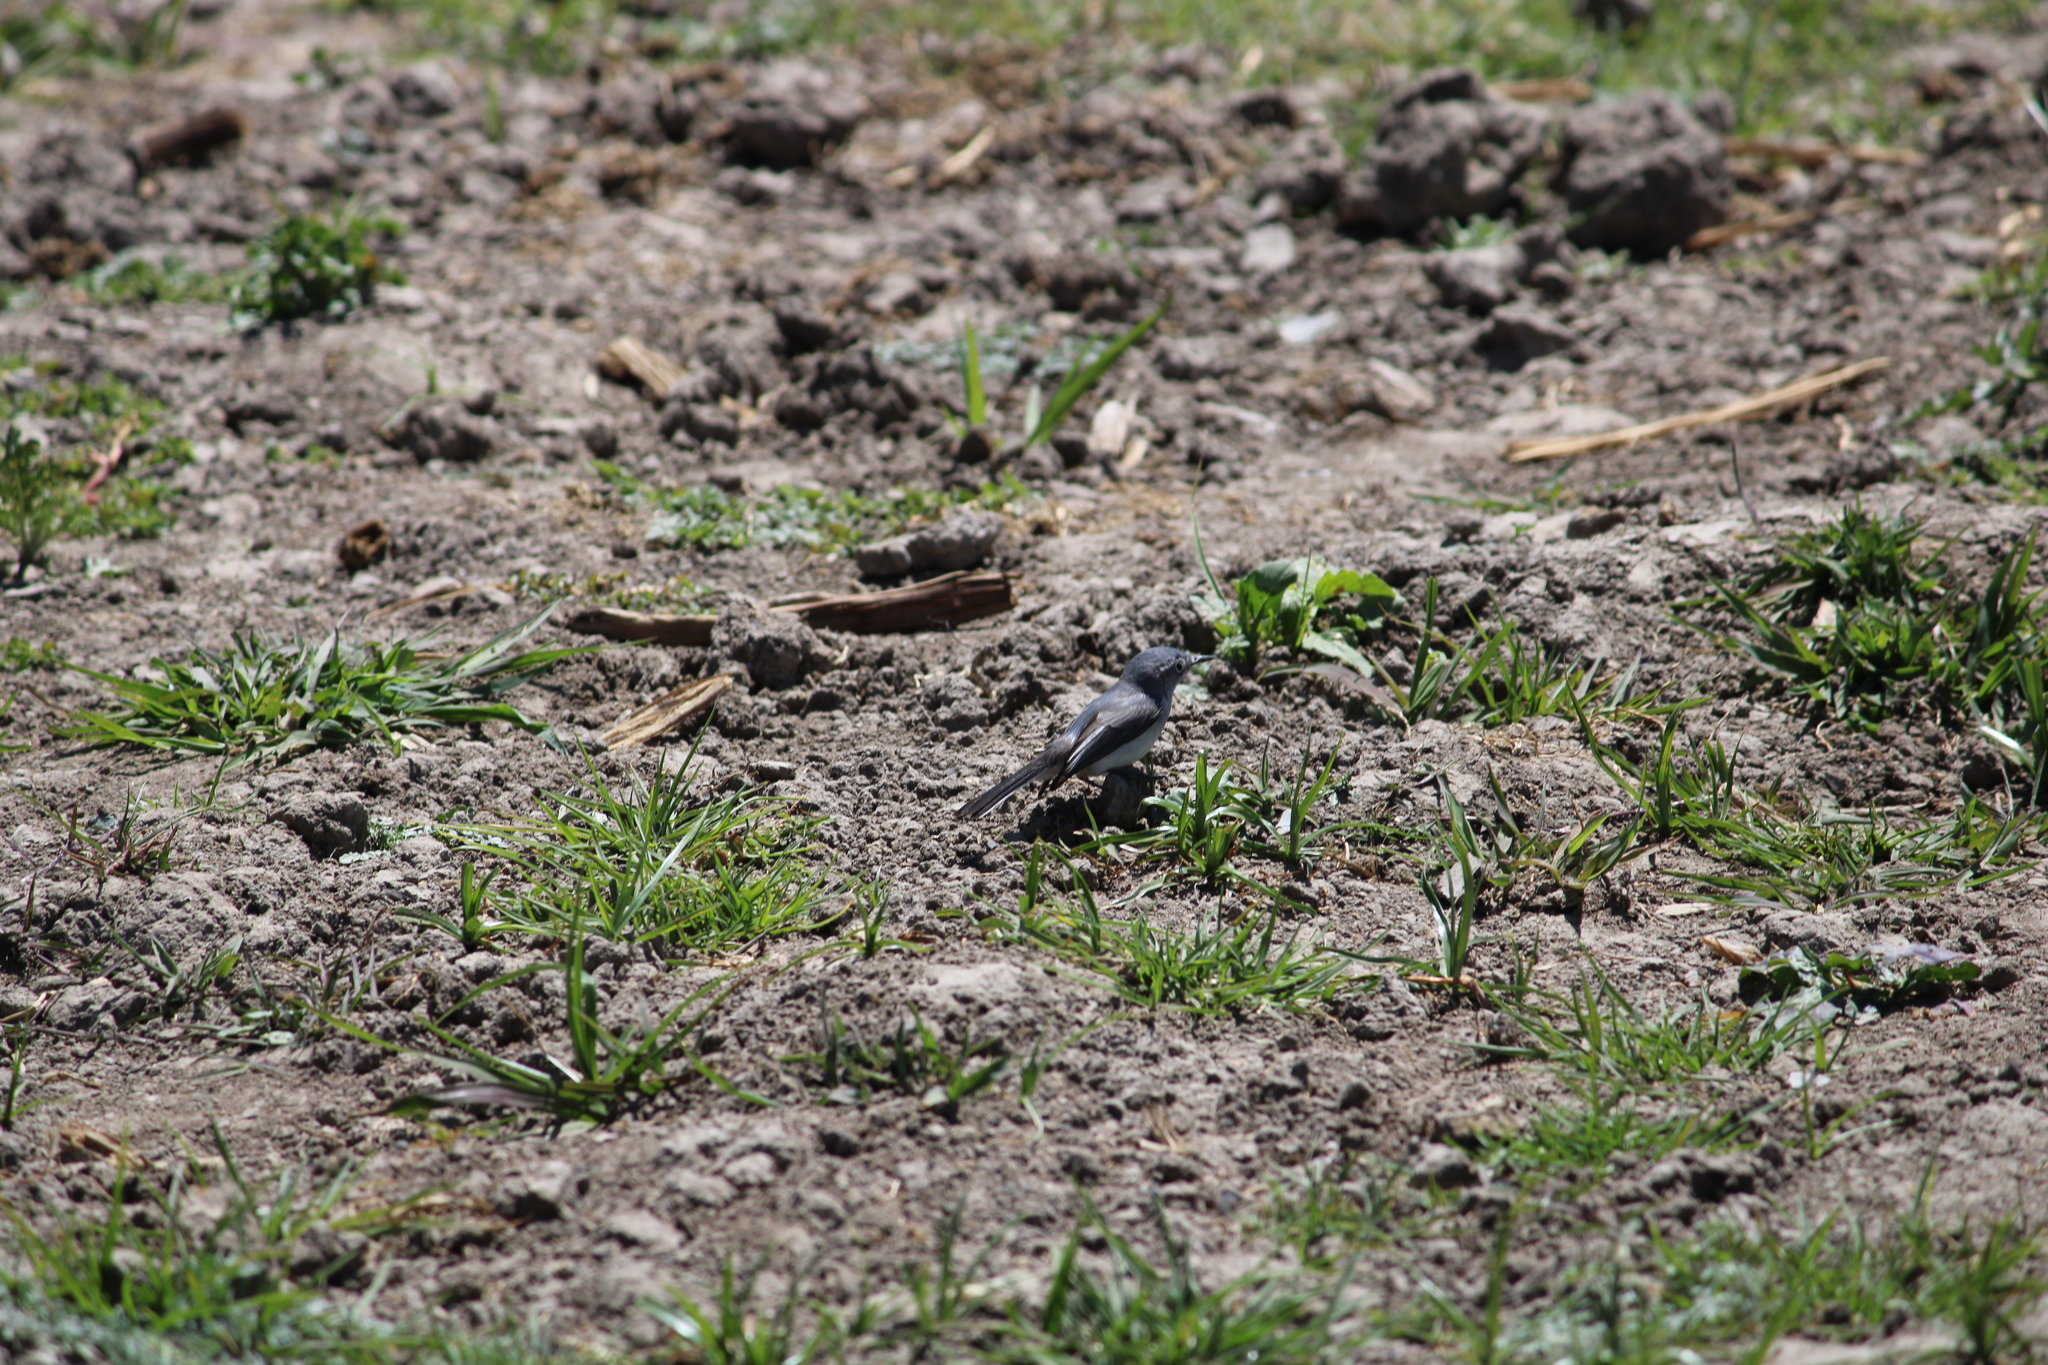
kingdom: Animalia
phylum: Chordata
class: Aves
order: Passeriformes
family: Polioptilidae
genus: Polioptila
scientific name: Polioptila caerulea
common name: Blue-gray gnatcatcher
